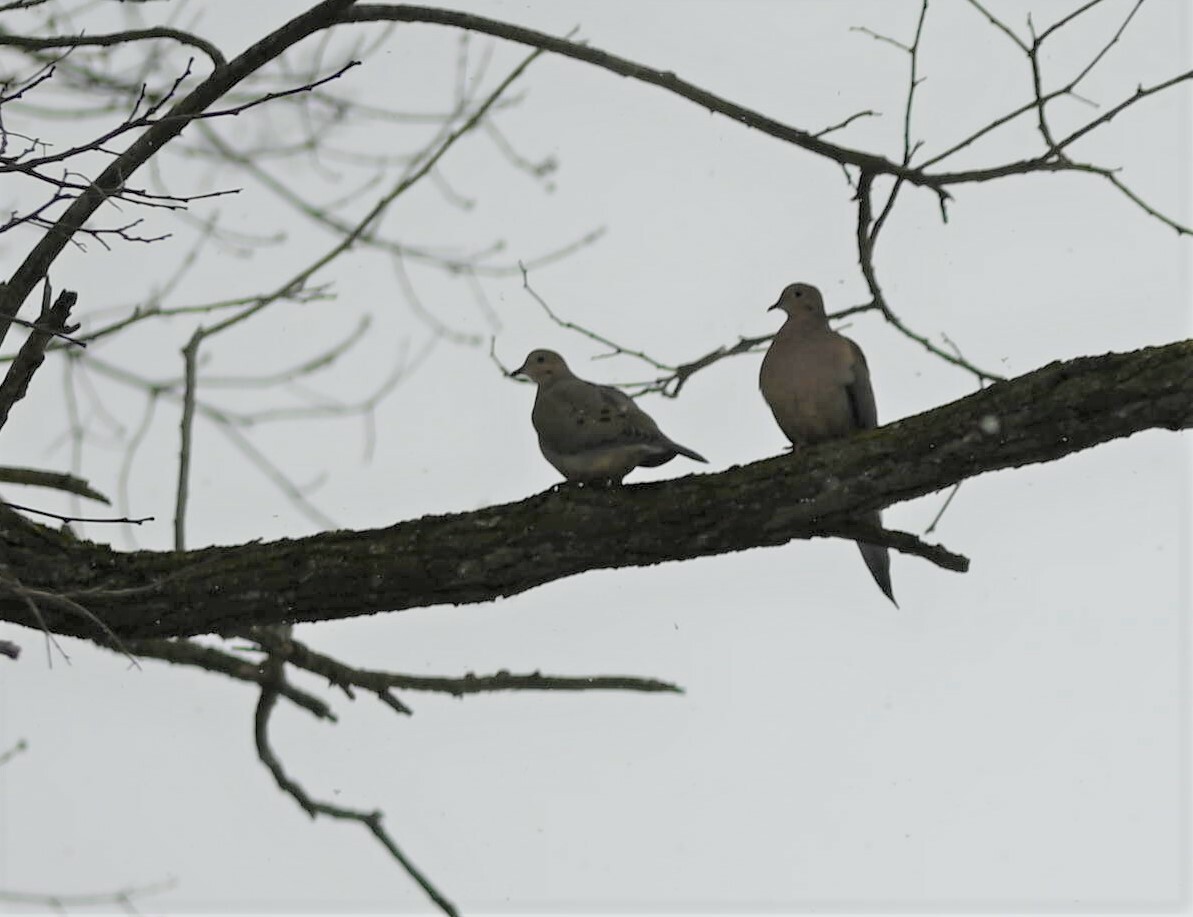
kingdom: Animalia
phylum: Chordata
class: Aves
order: Columbiformes
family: Columbidae
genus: Zenaida
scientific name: Zenaida macroura
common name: Mourning dove
